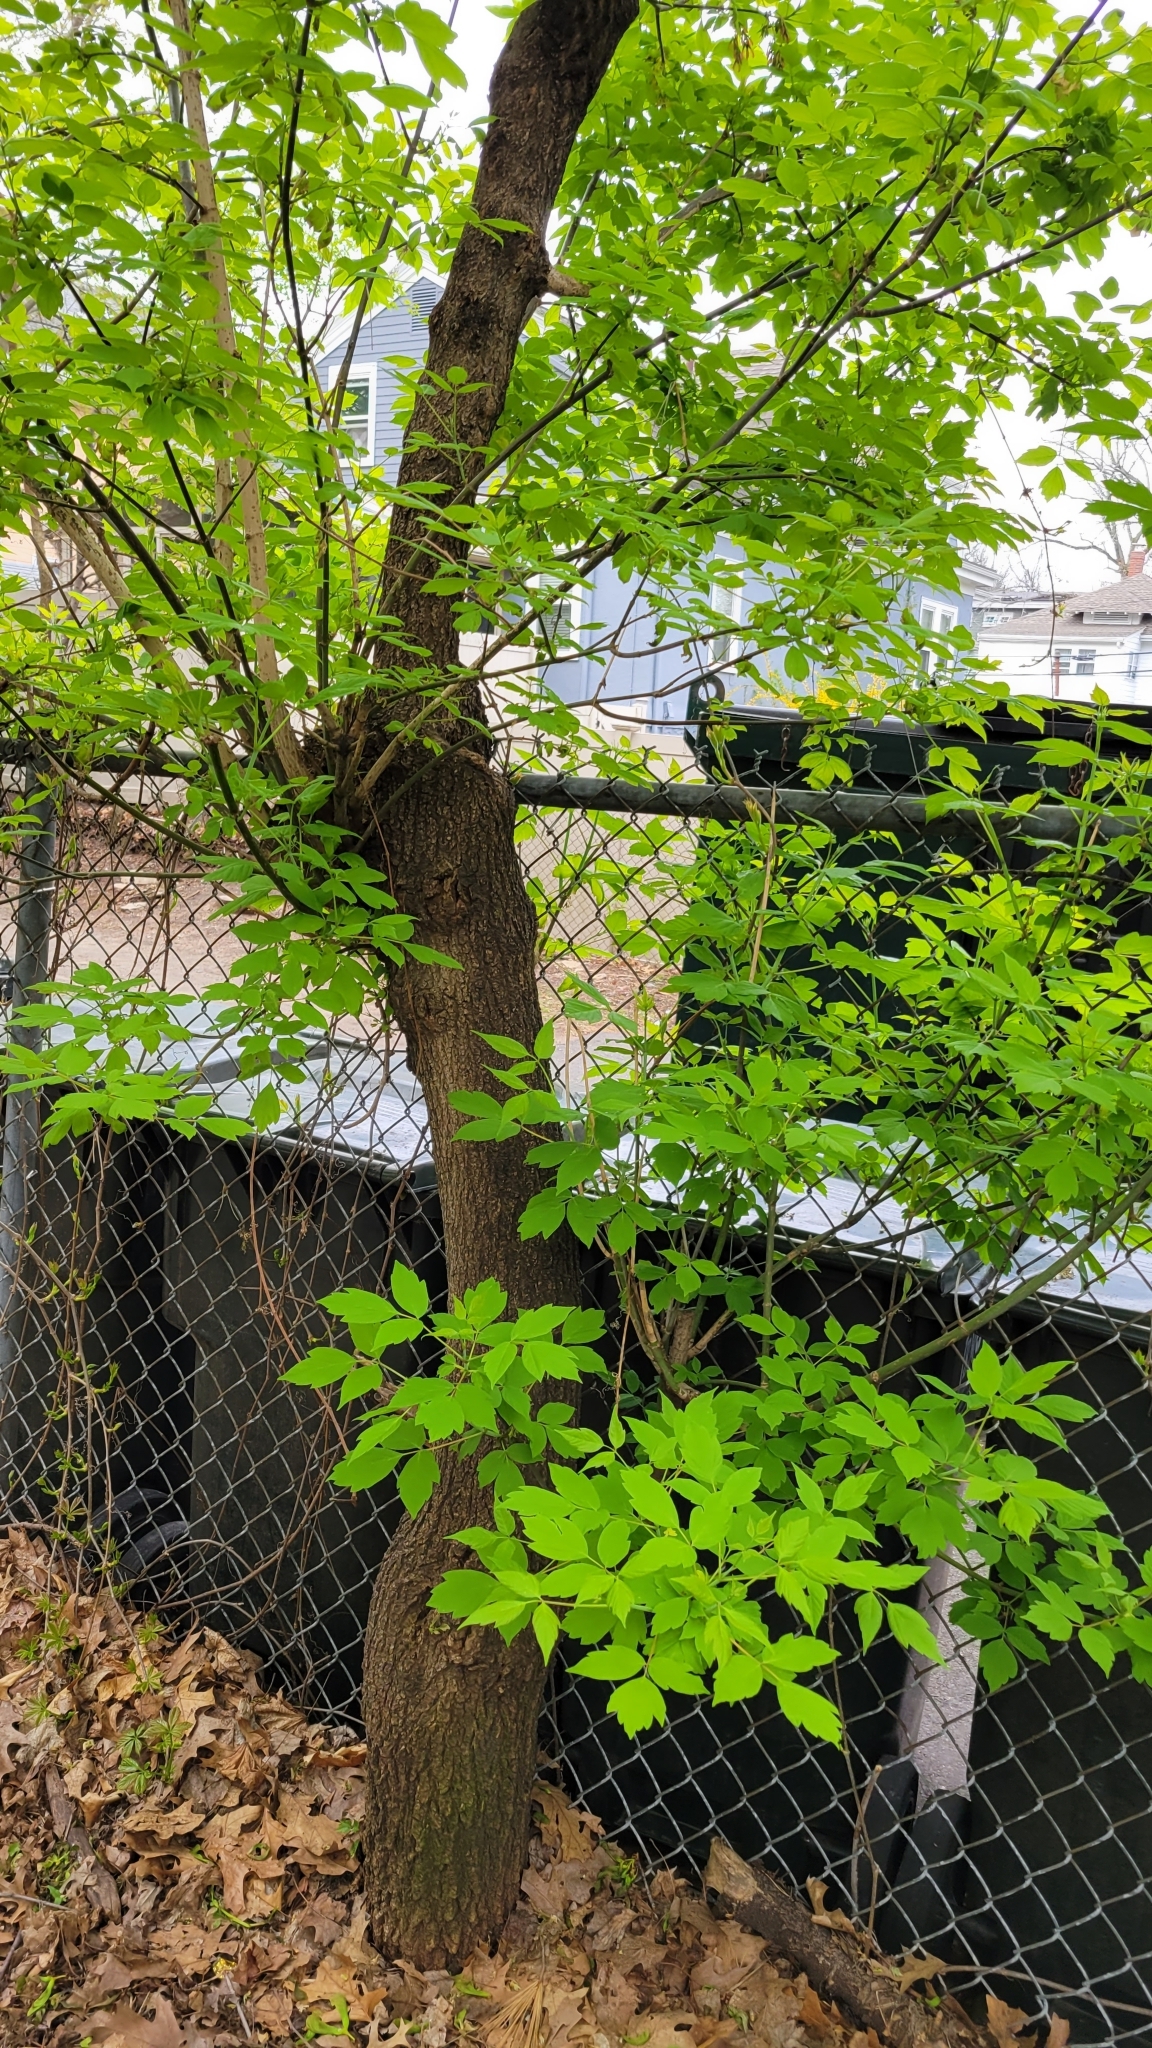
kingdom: Plantae
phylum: Tracheophyta
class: Magnoliopsida
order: Sapindales
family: Sapindaceae
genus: Acer
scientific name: Acer negundo
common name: Ashleaf maple
